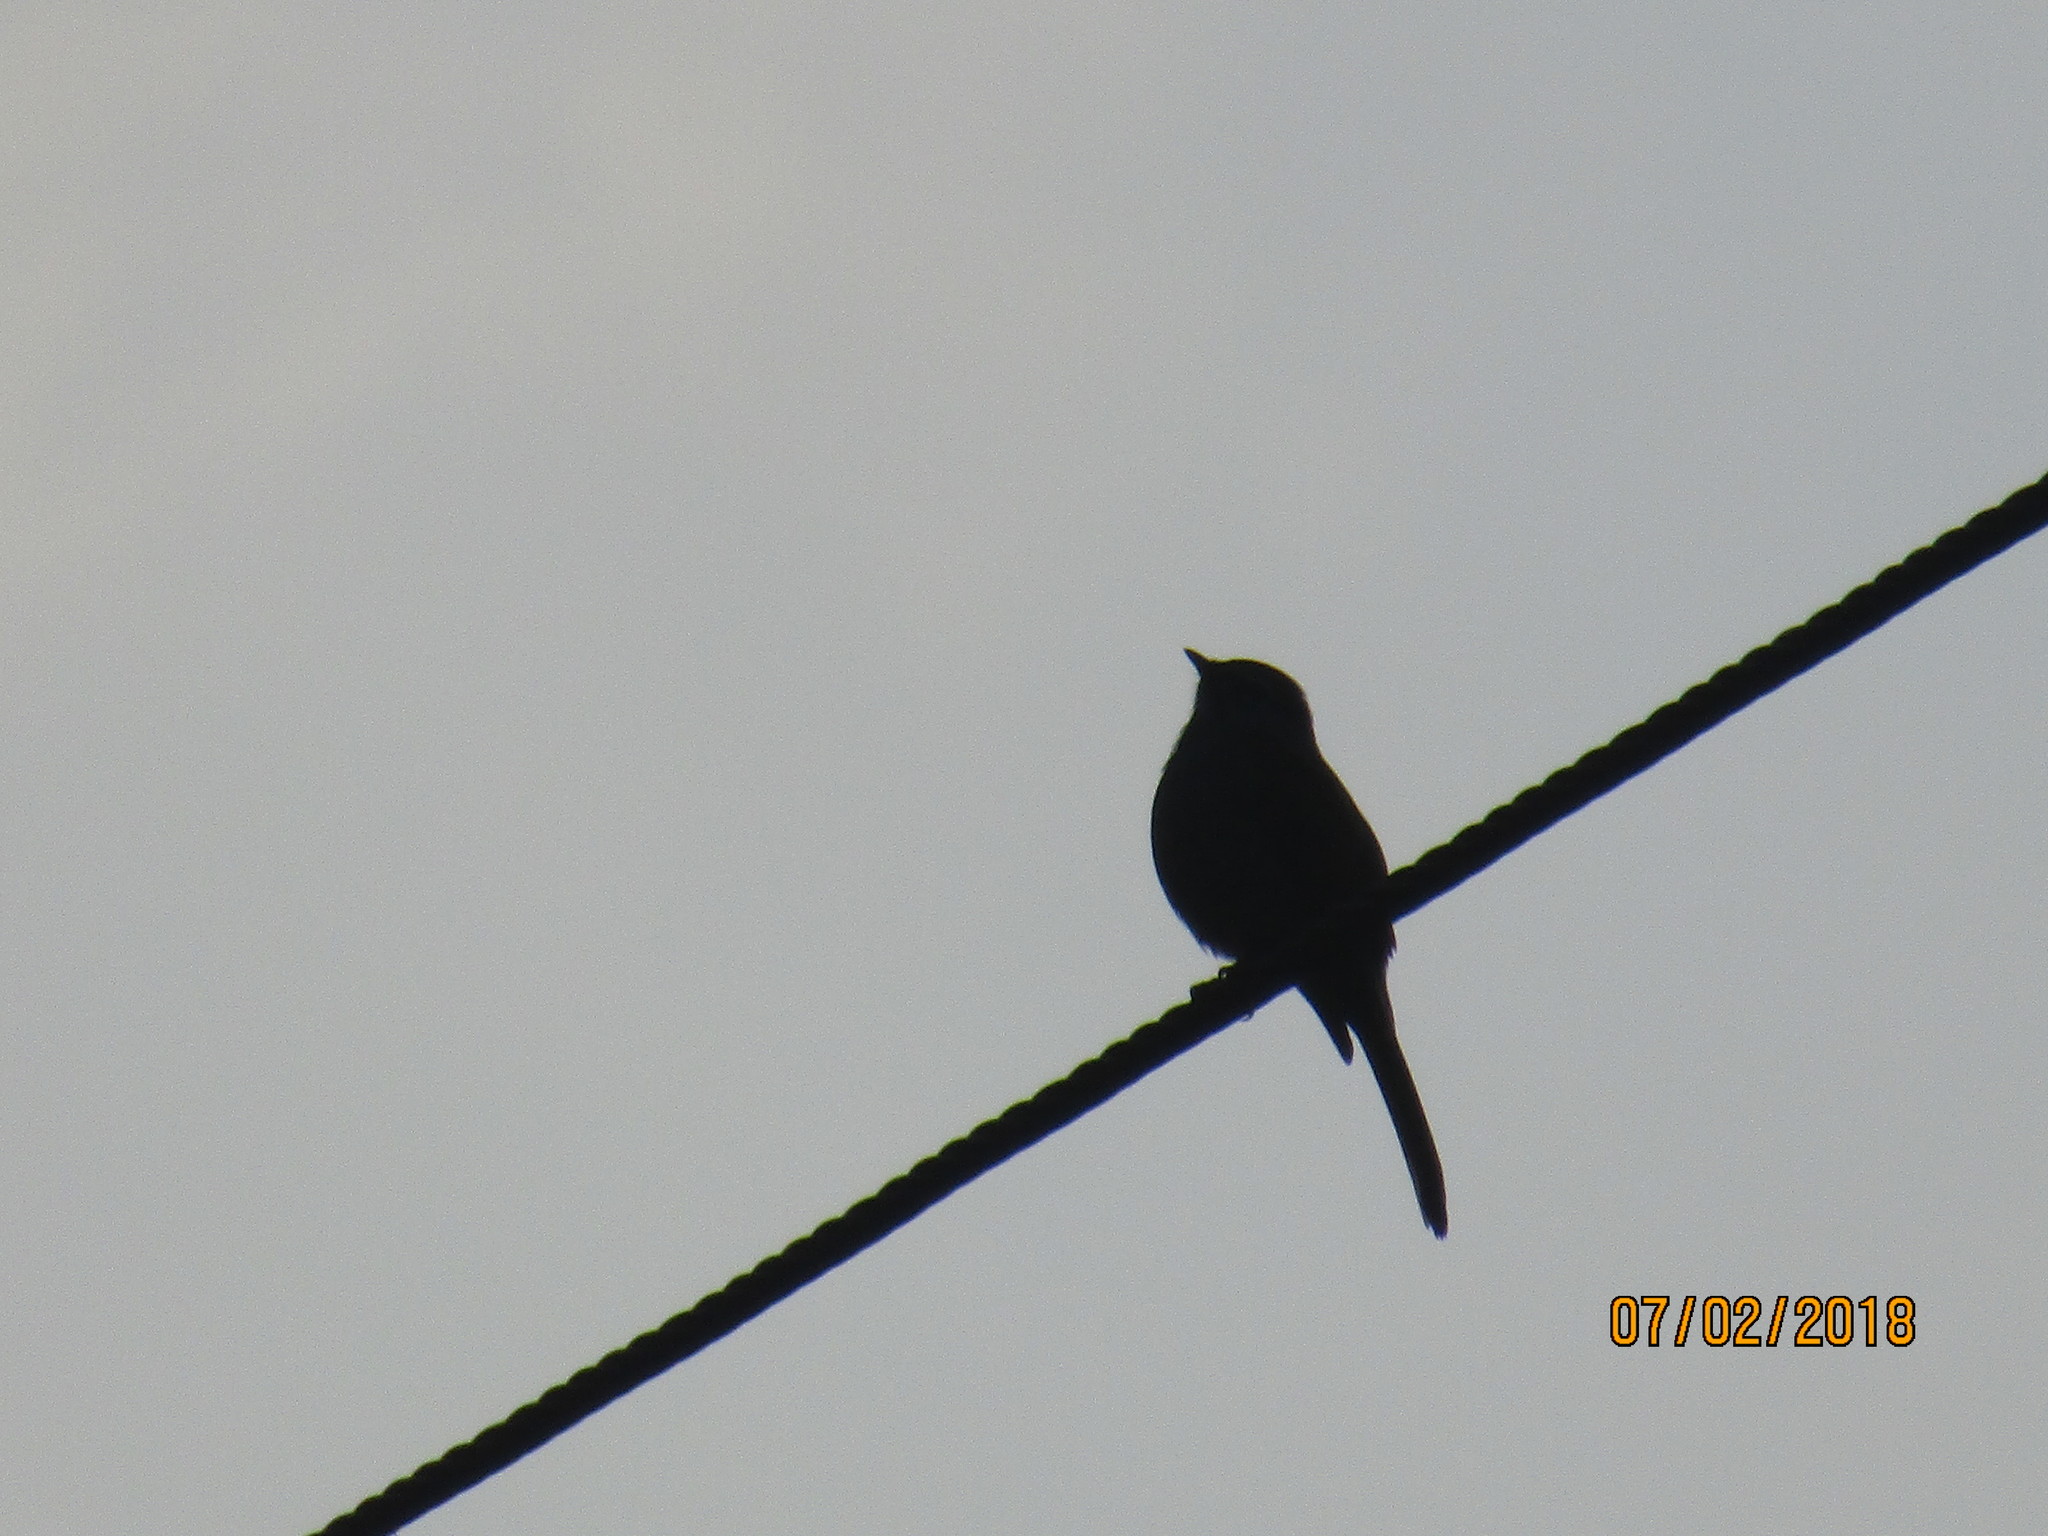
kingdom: Animalia
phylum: Chordata
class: Aves
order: Passeriformes
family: Turdidae
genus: Myadestes
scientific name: Myadestes occidentalis
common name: Brown-backed solitaire
